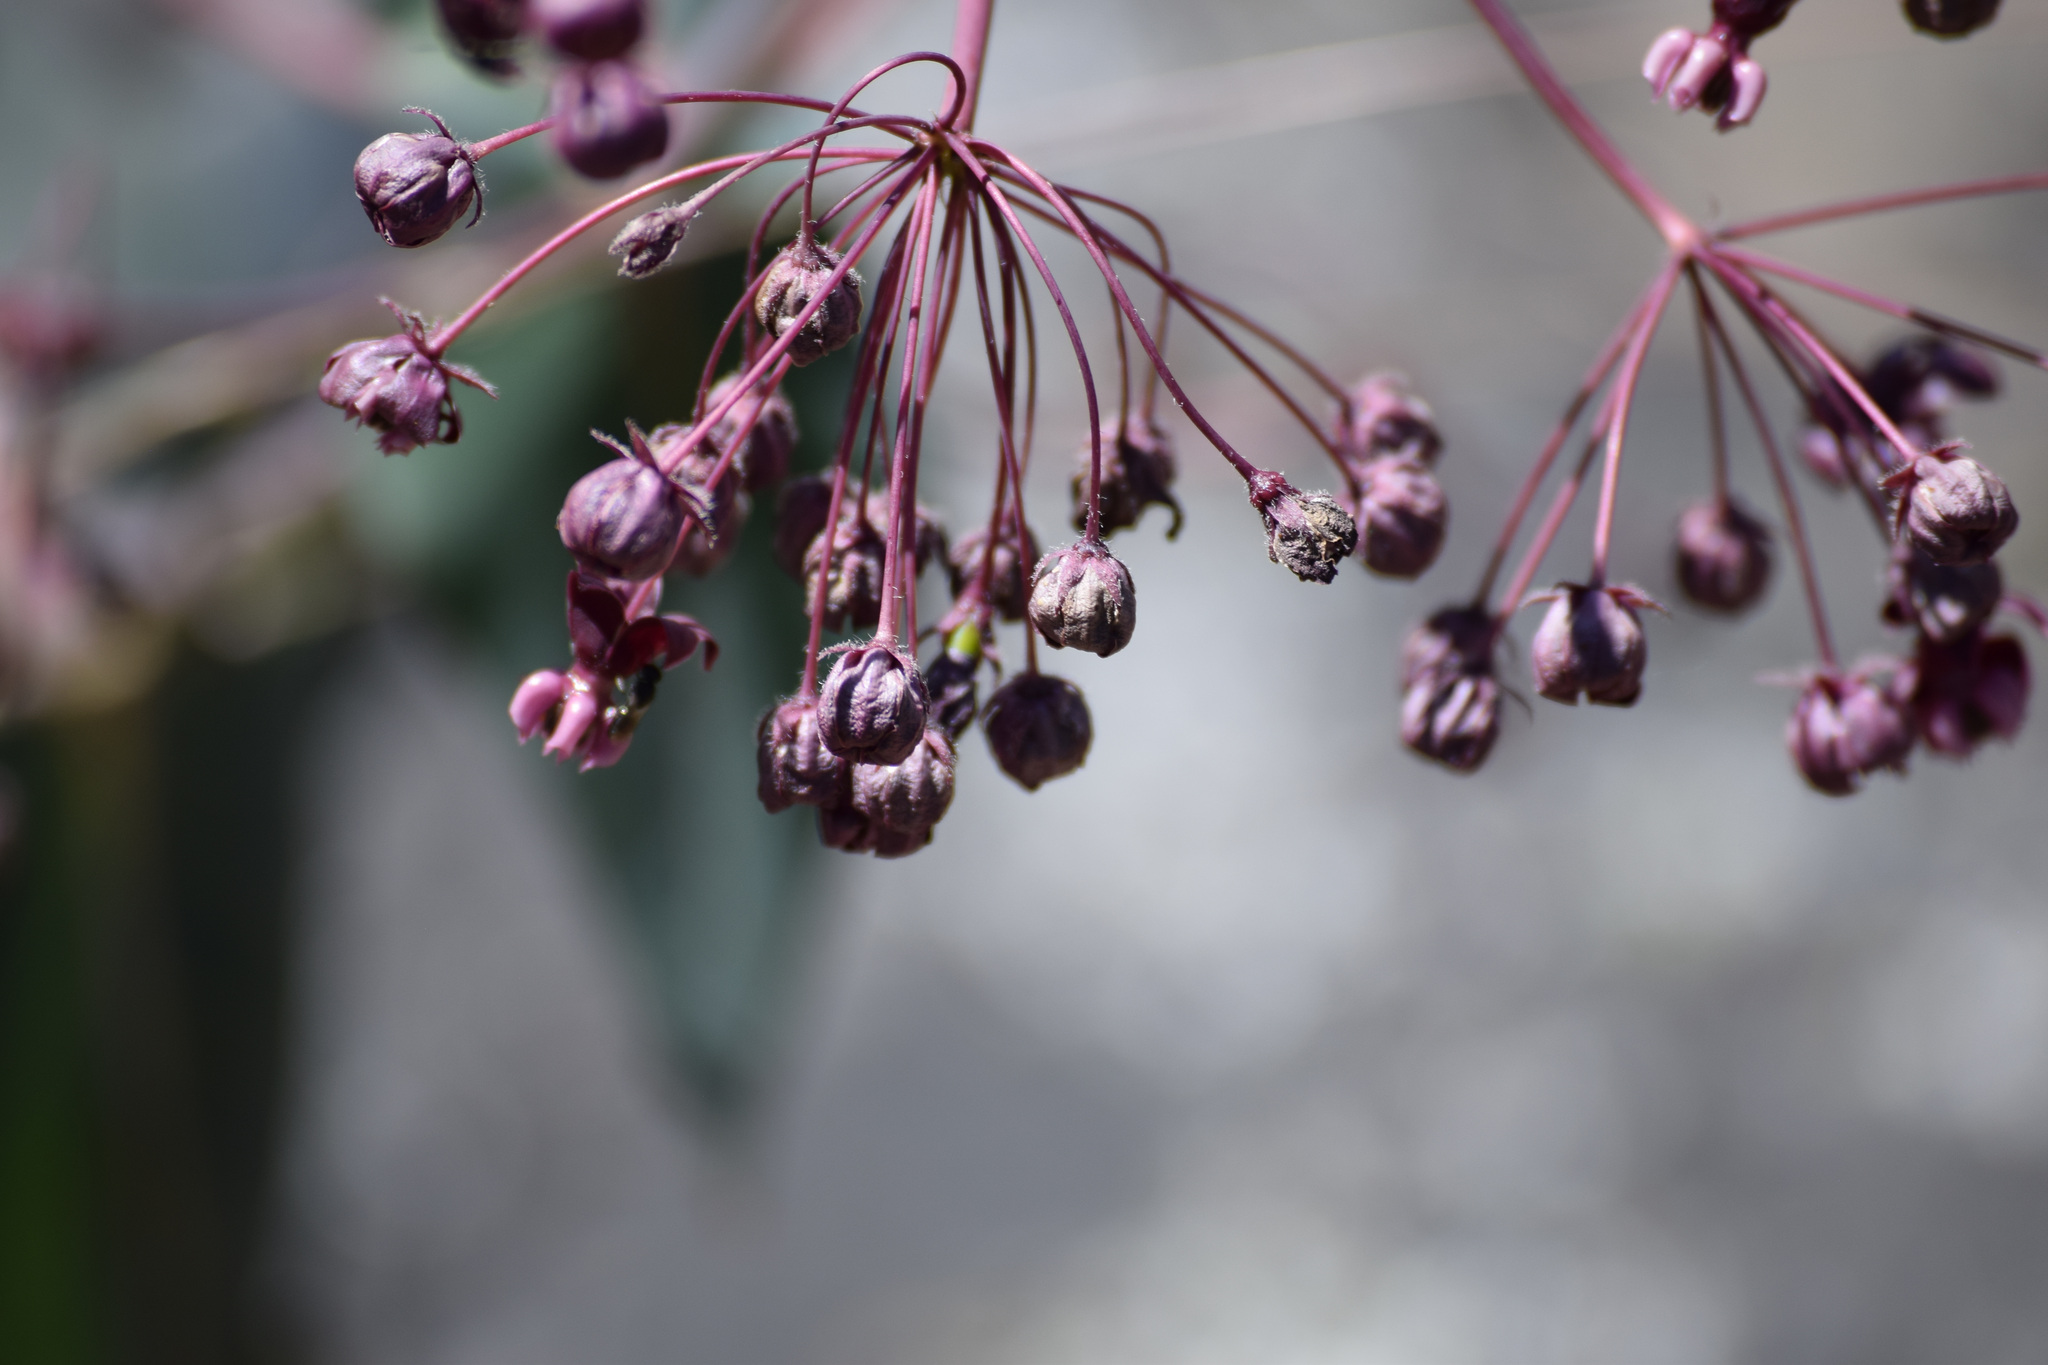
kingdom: Plantae
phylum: Tracheophyta
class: Magnoliopsida
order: Gentianales
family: Apocynaceae
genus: Asclepias
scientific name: Asclepias cordifolia
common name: Purple milkweed
